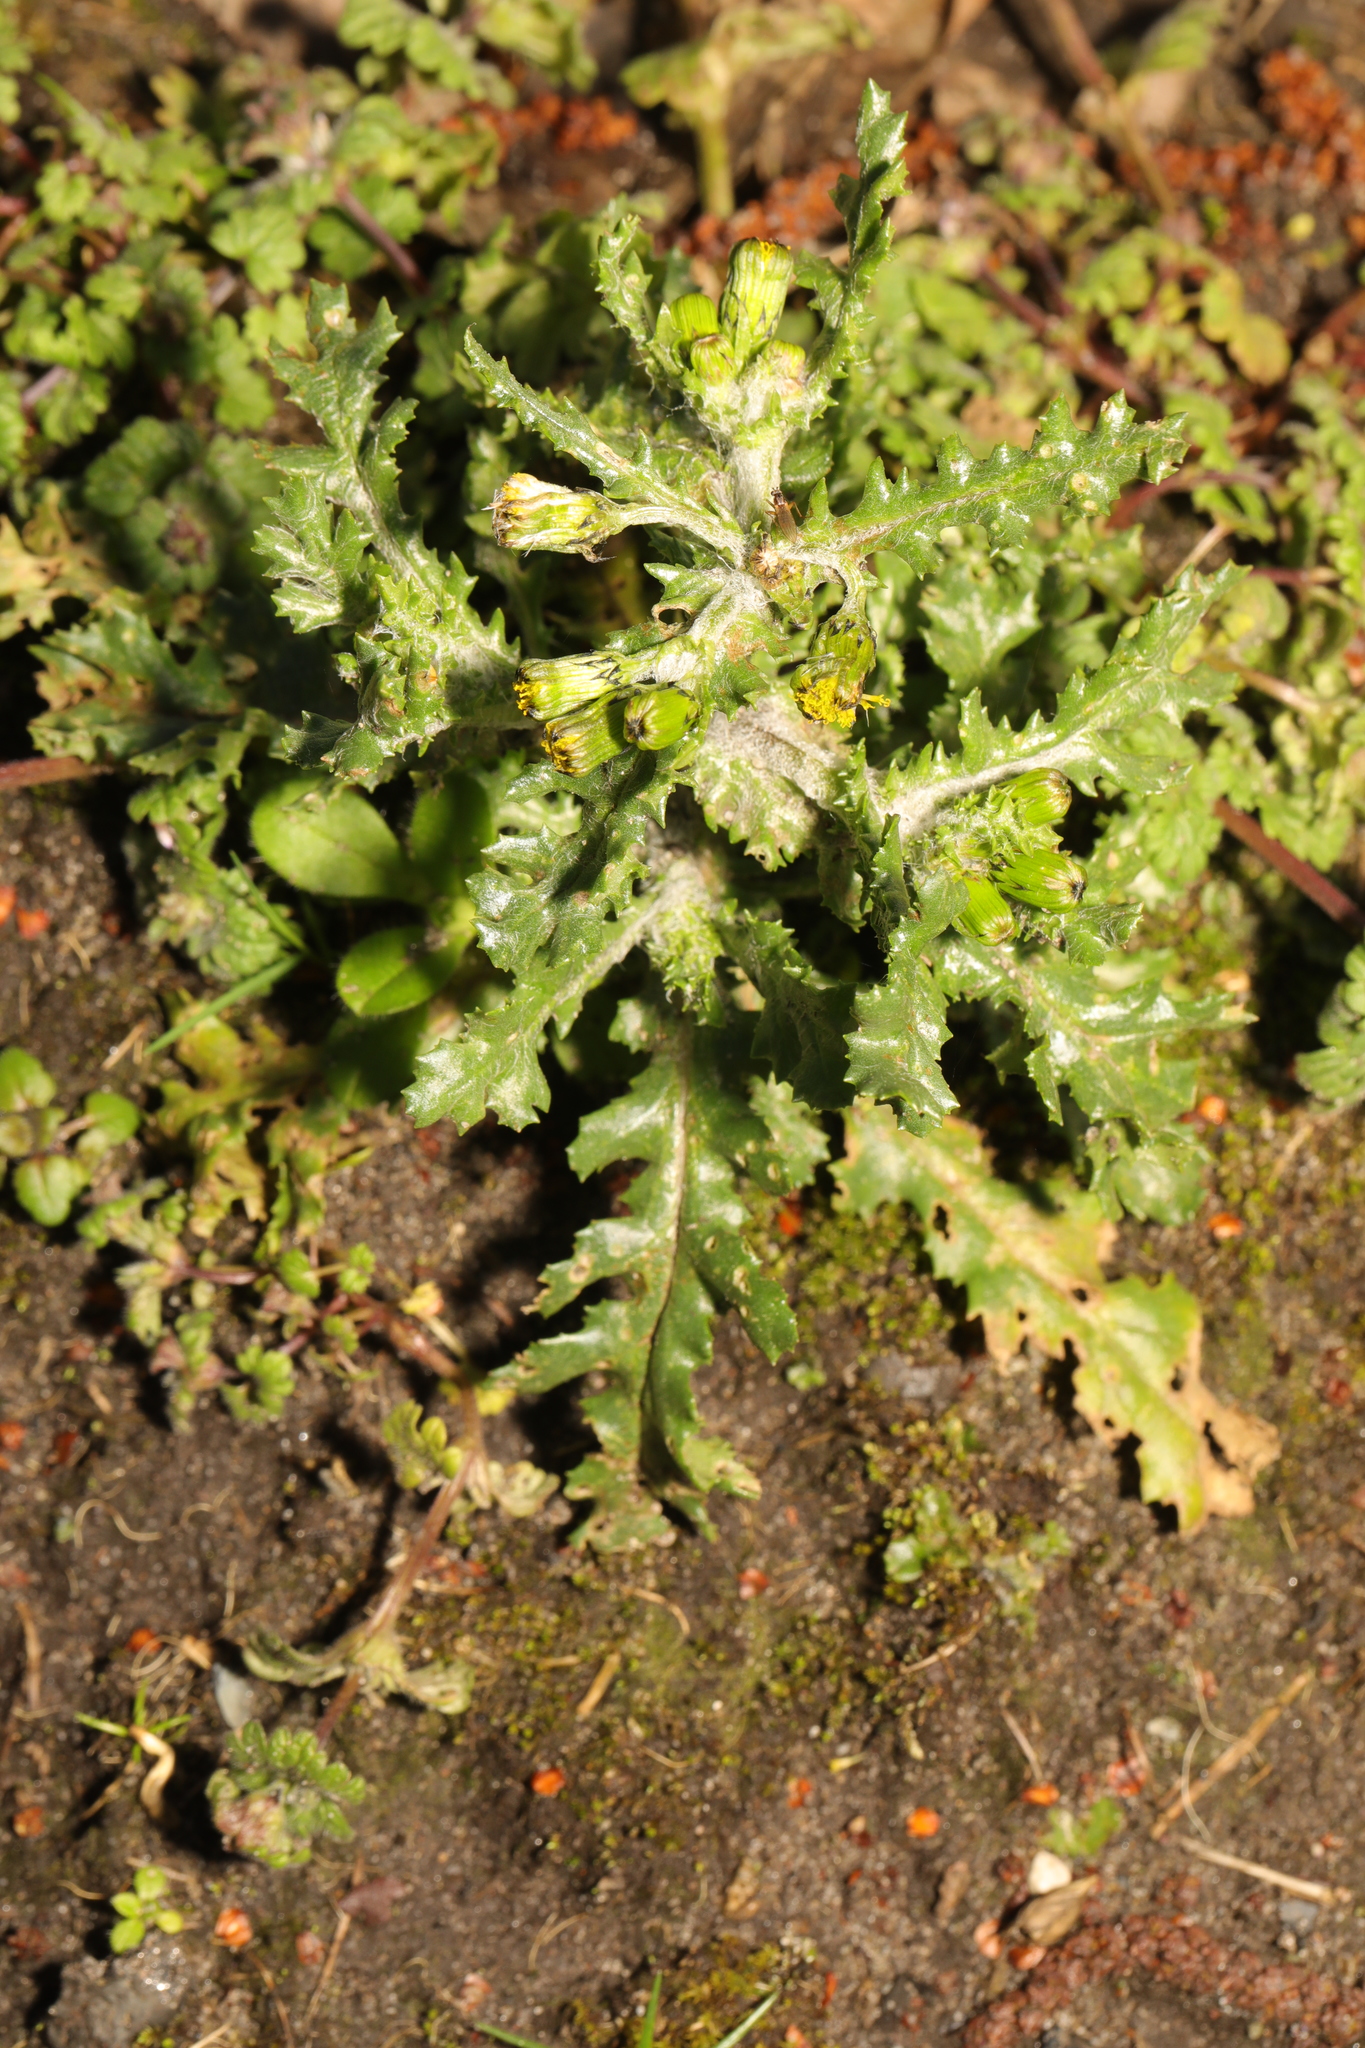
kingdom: Plantae
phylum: Tracheophyta
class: Magnoliopsida
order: Asterales
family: Asteraceae
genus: Senecio
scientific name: Senecio vulgaris
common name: Old-man-in-the-spring
